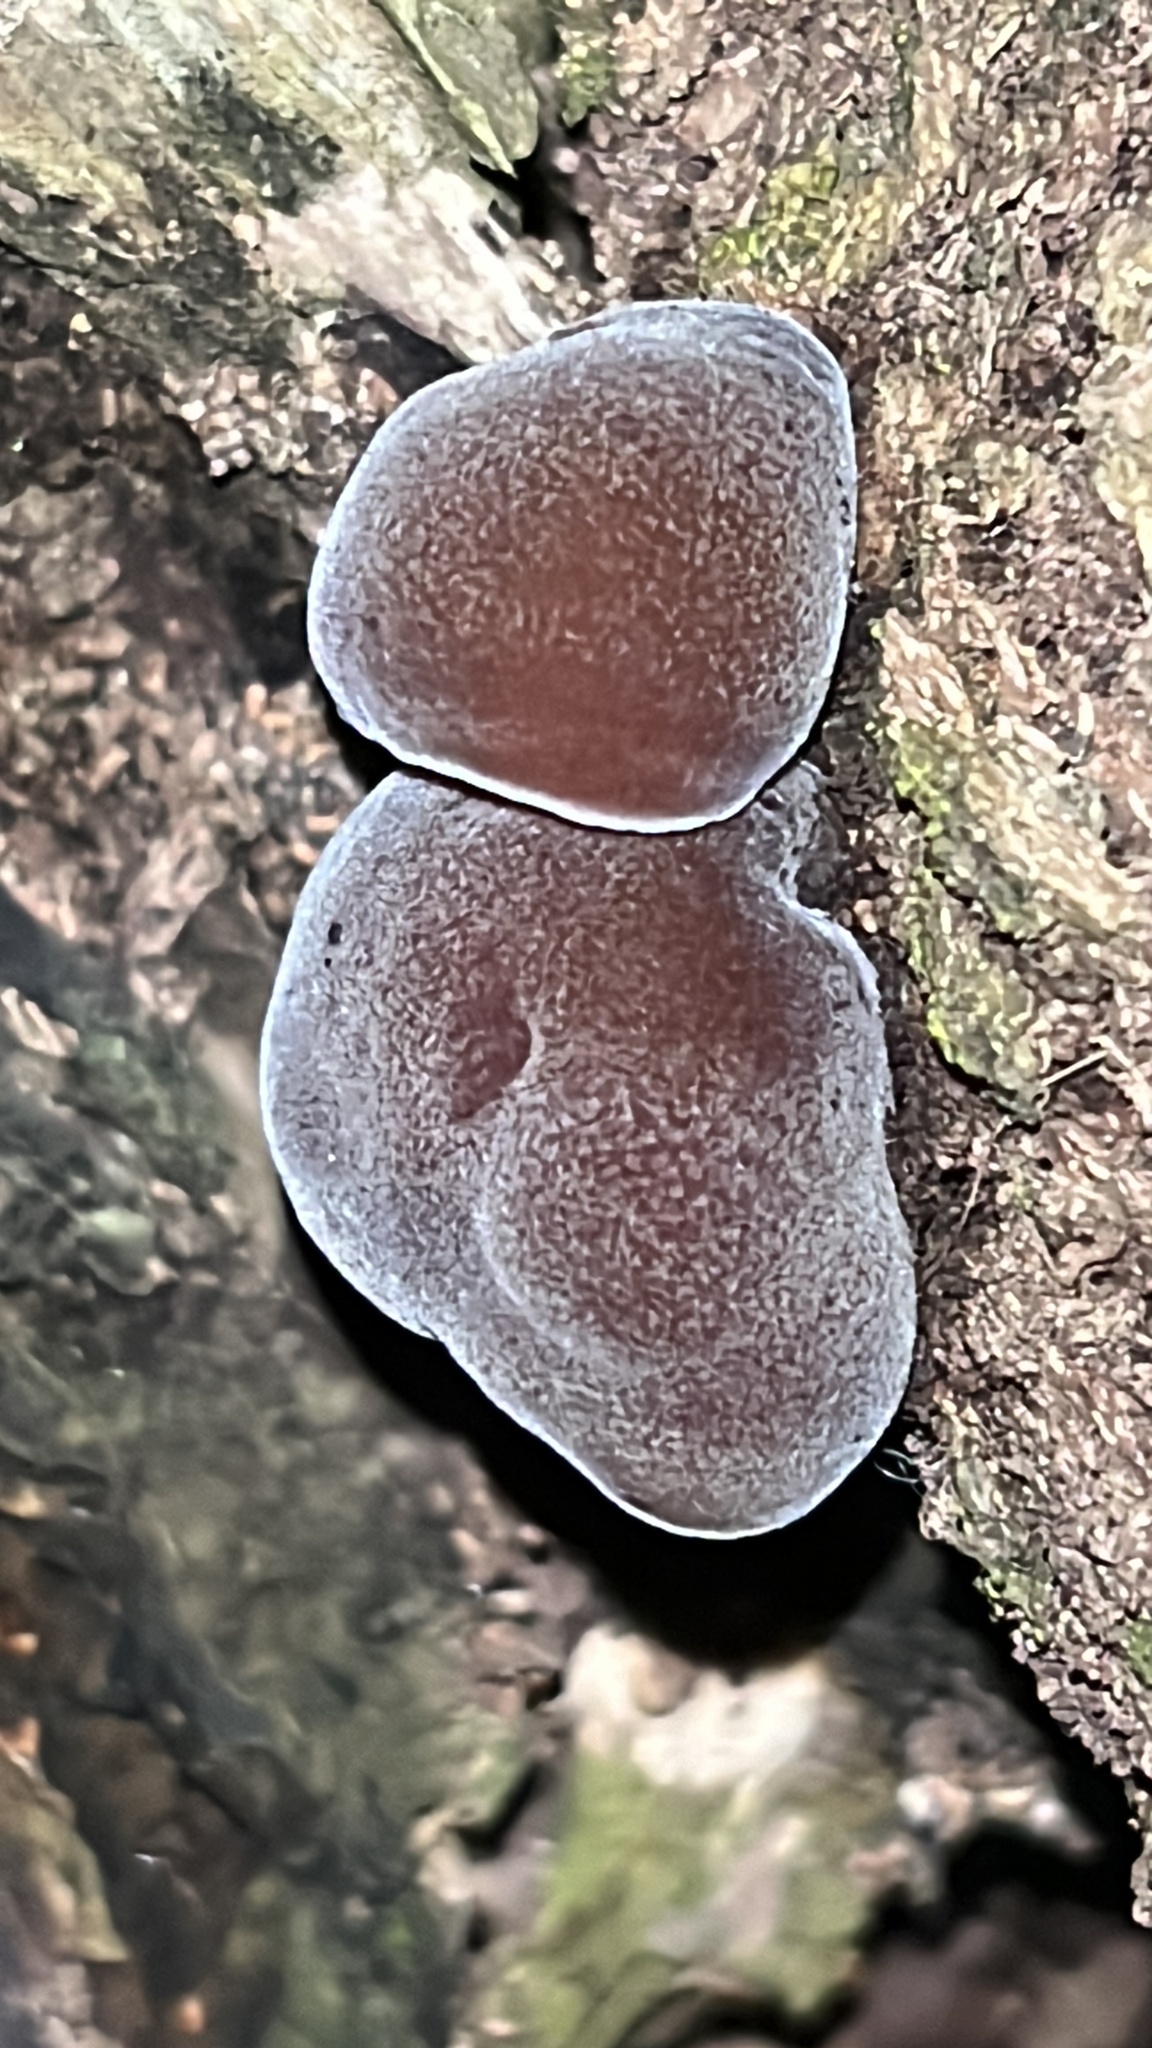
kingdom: Fungi
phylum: Basidiomycota
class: Agaricomycetes
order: Auriculariales
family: Auriculariaceae
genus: Auricularia
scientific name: Auricularia cornea
